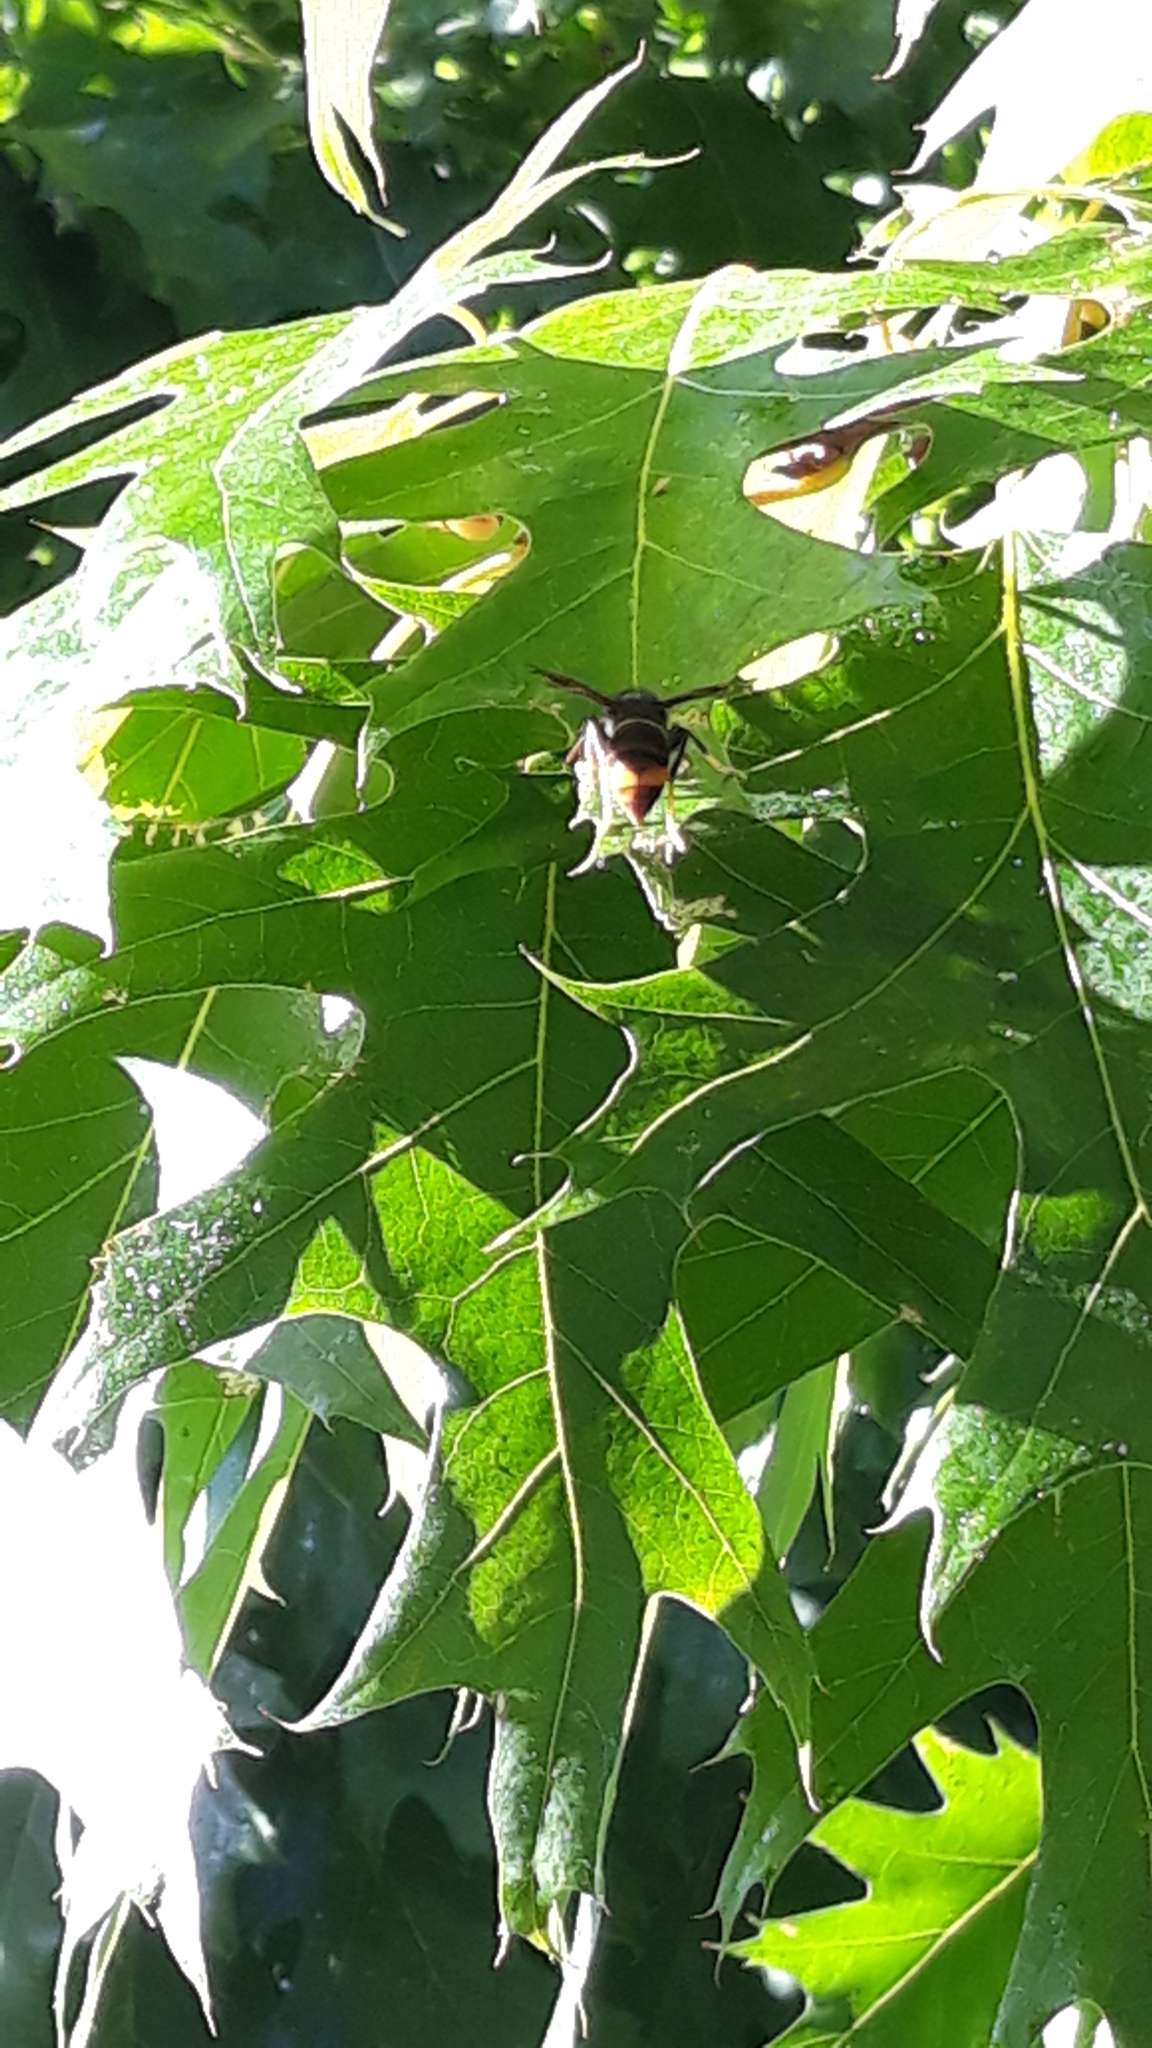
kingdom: Animalia
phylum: Arthropoda
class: Insecta
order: Hymenoptera
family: Vespidae
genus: Vespa
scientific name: Vespa velutina
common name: Asian hornet
